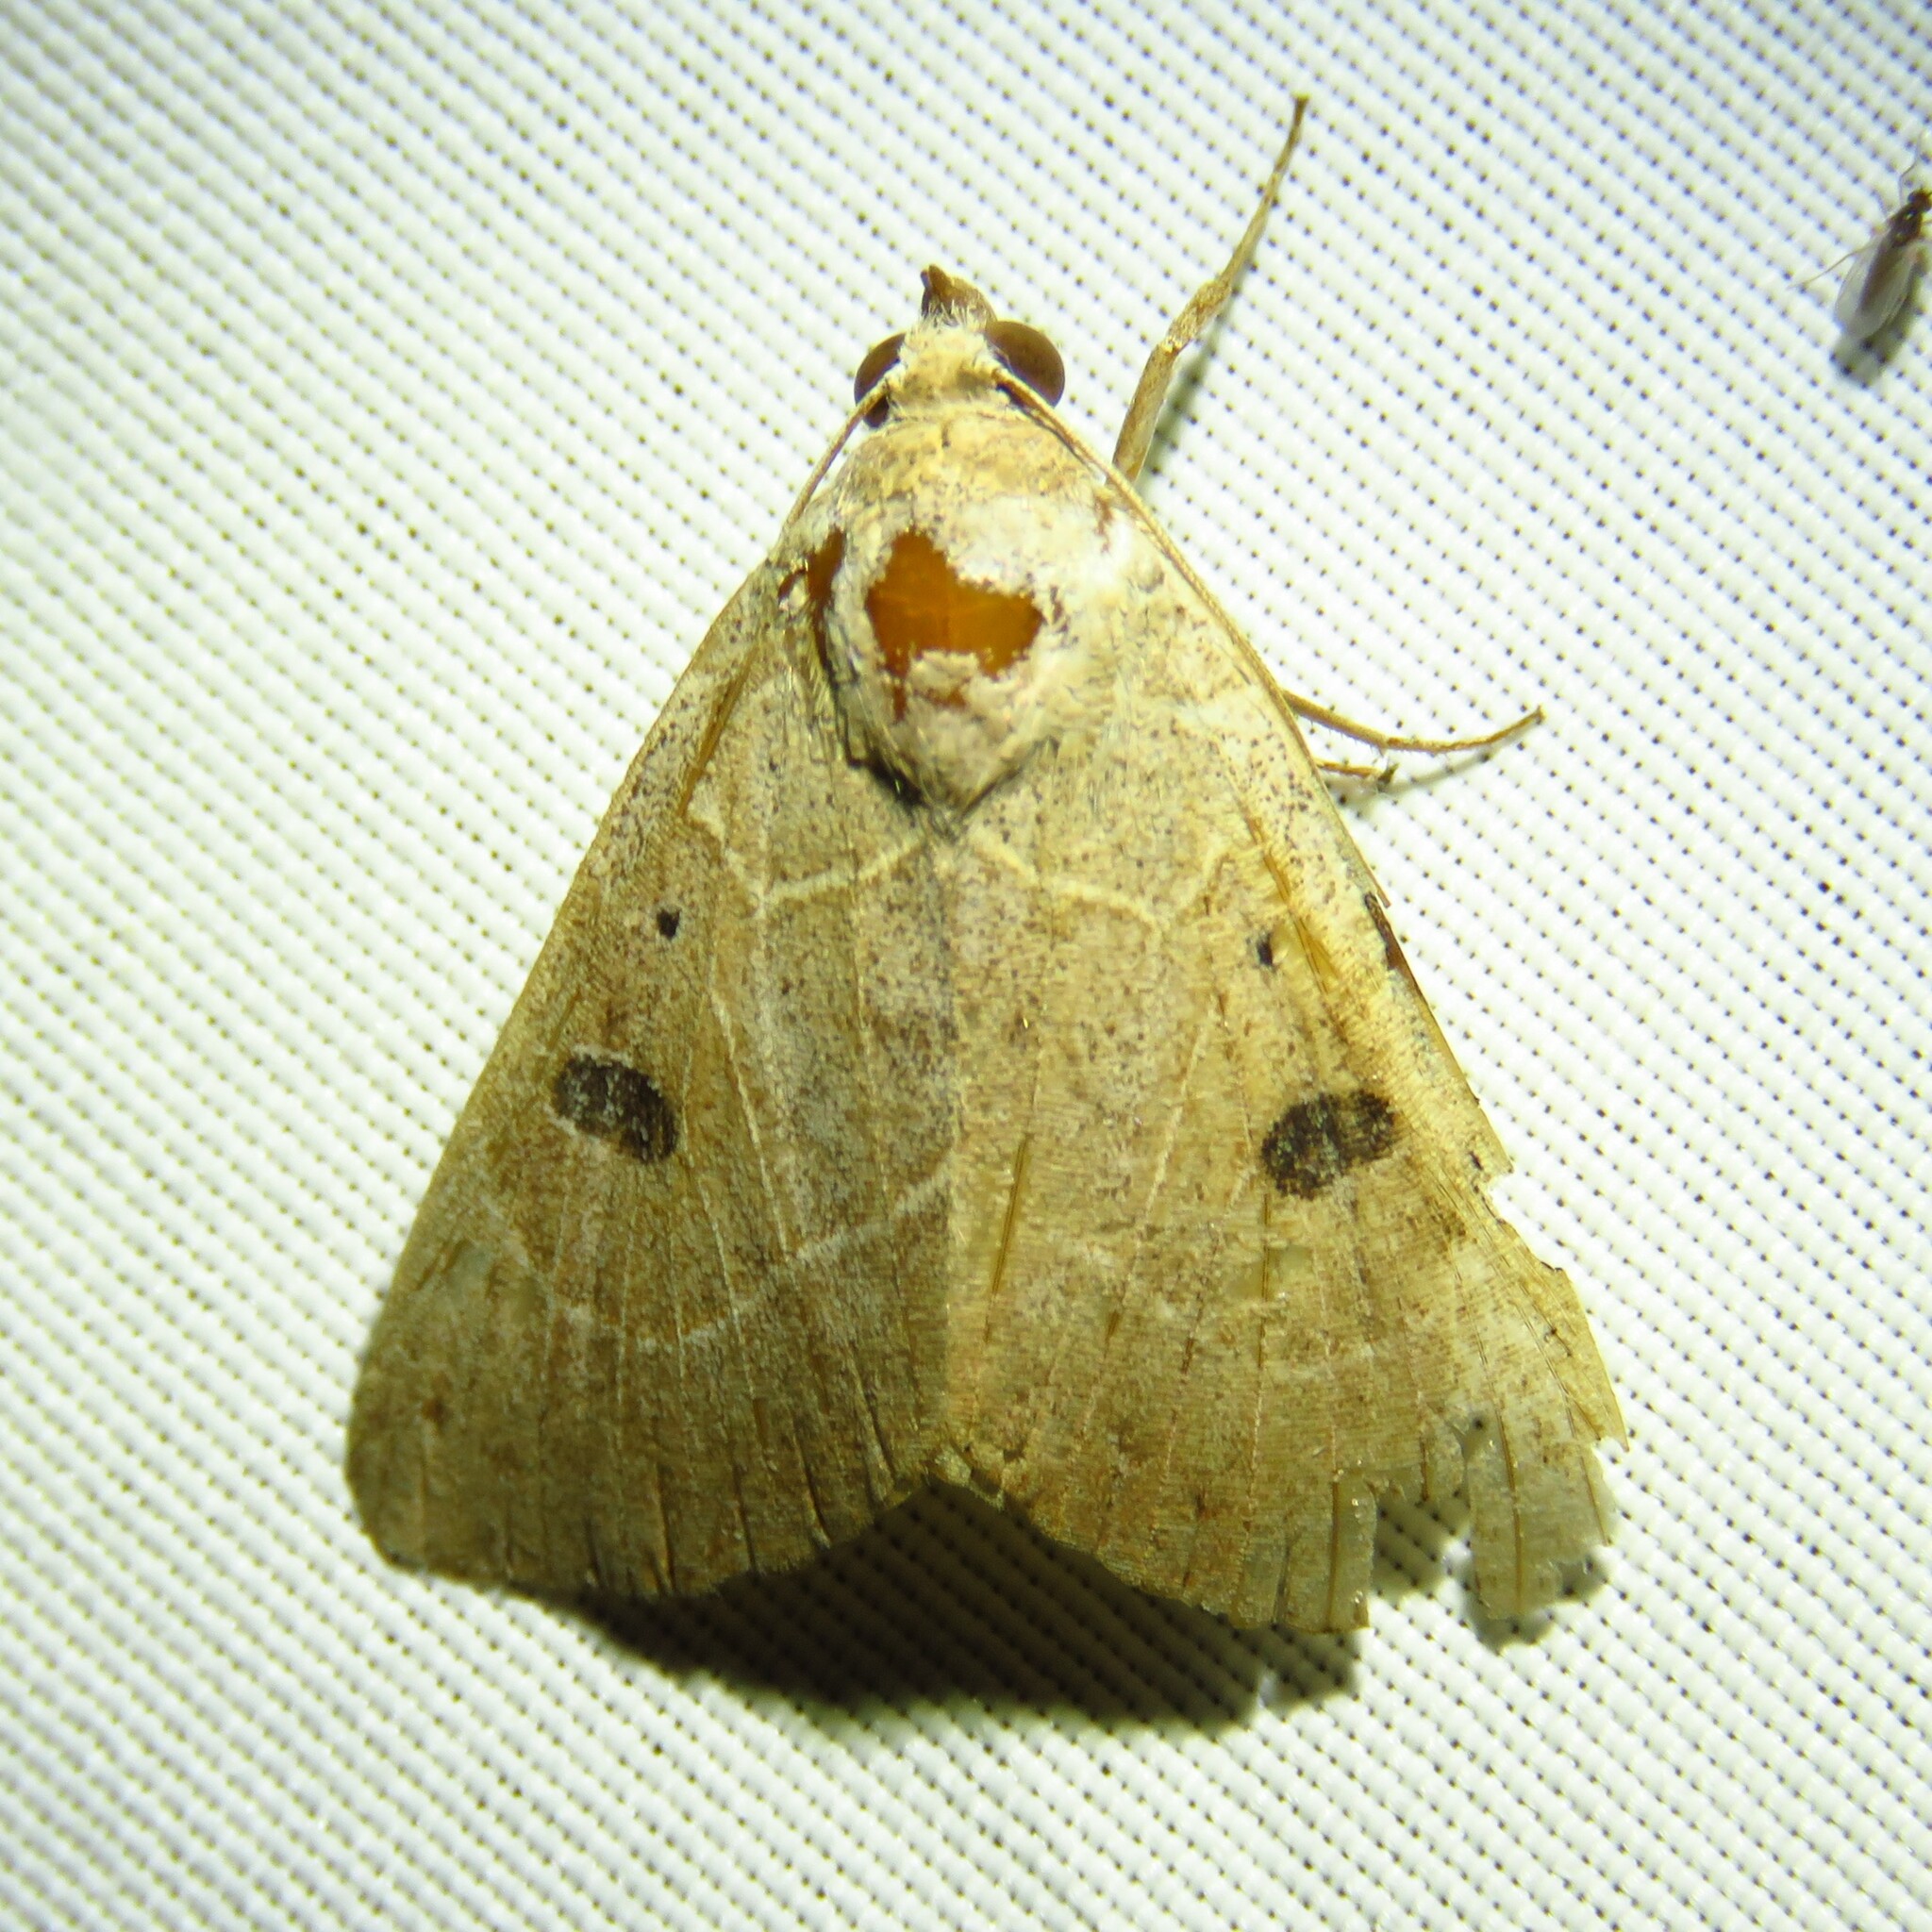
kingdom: Animalia
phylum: Arthropoda
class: Insecta
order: Lepidoptera
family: Erebidae
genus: Isogona
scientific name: Isogona scindens
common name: Owlet moth
